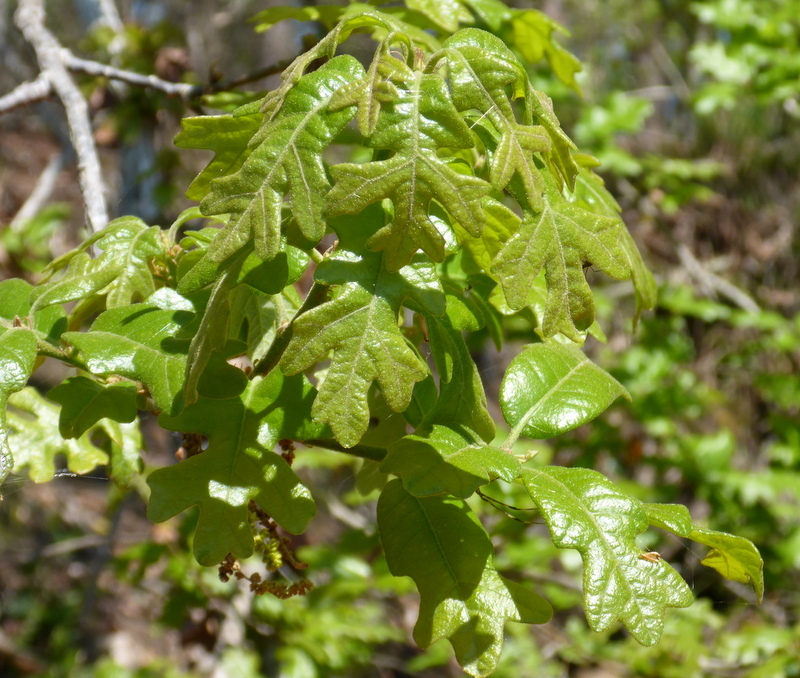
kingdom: Plantae
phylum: Tracheophyta
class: Magnoliopsida
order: Fagales
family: Fagaceae
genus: Quercus
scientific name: Quercus stellata
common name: Post oak
